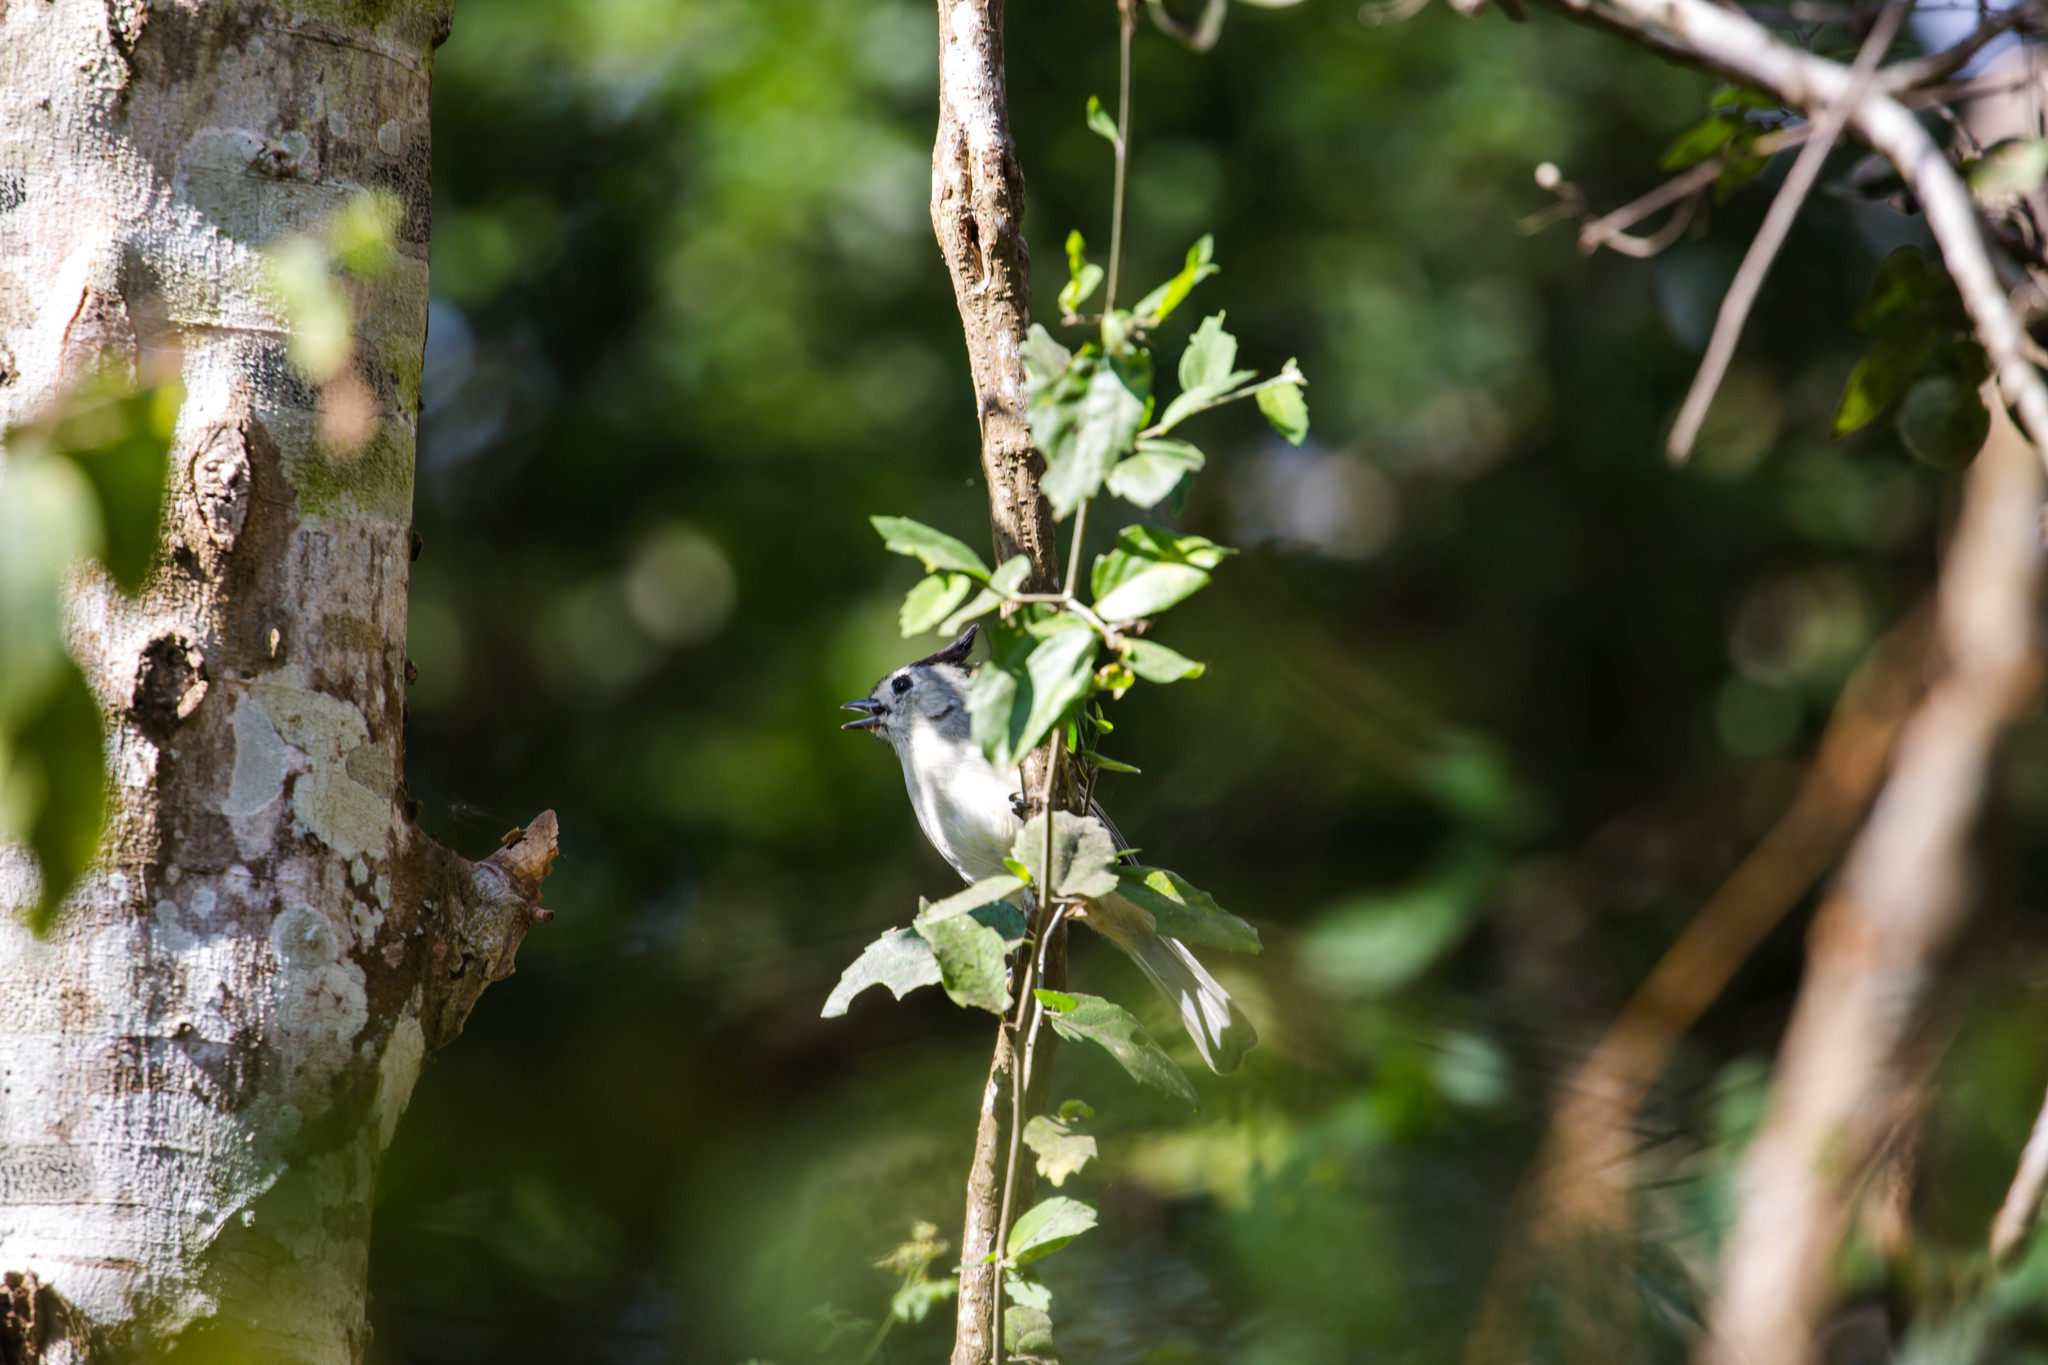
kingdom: Animalia
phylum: Chordata
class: Aves
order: Passeriformes
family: Paridae
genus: Baeolophus
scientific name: Baeolophus atricristatus
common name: Black-crested titmouse
